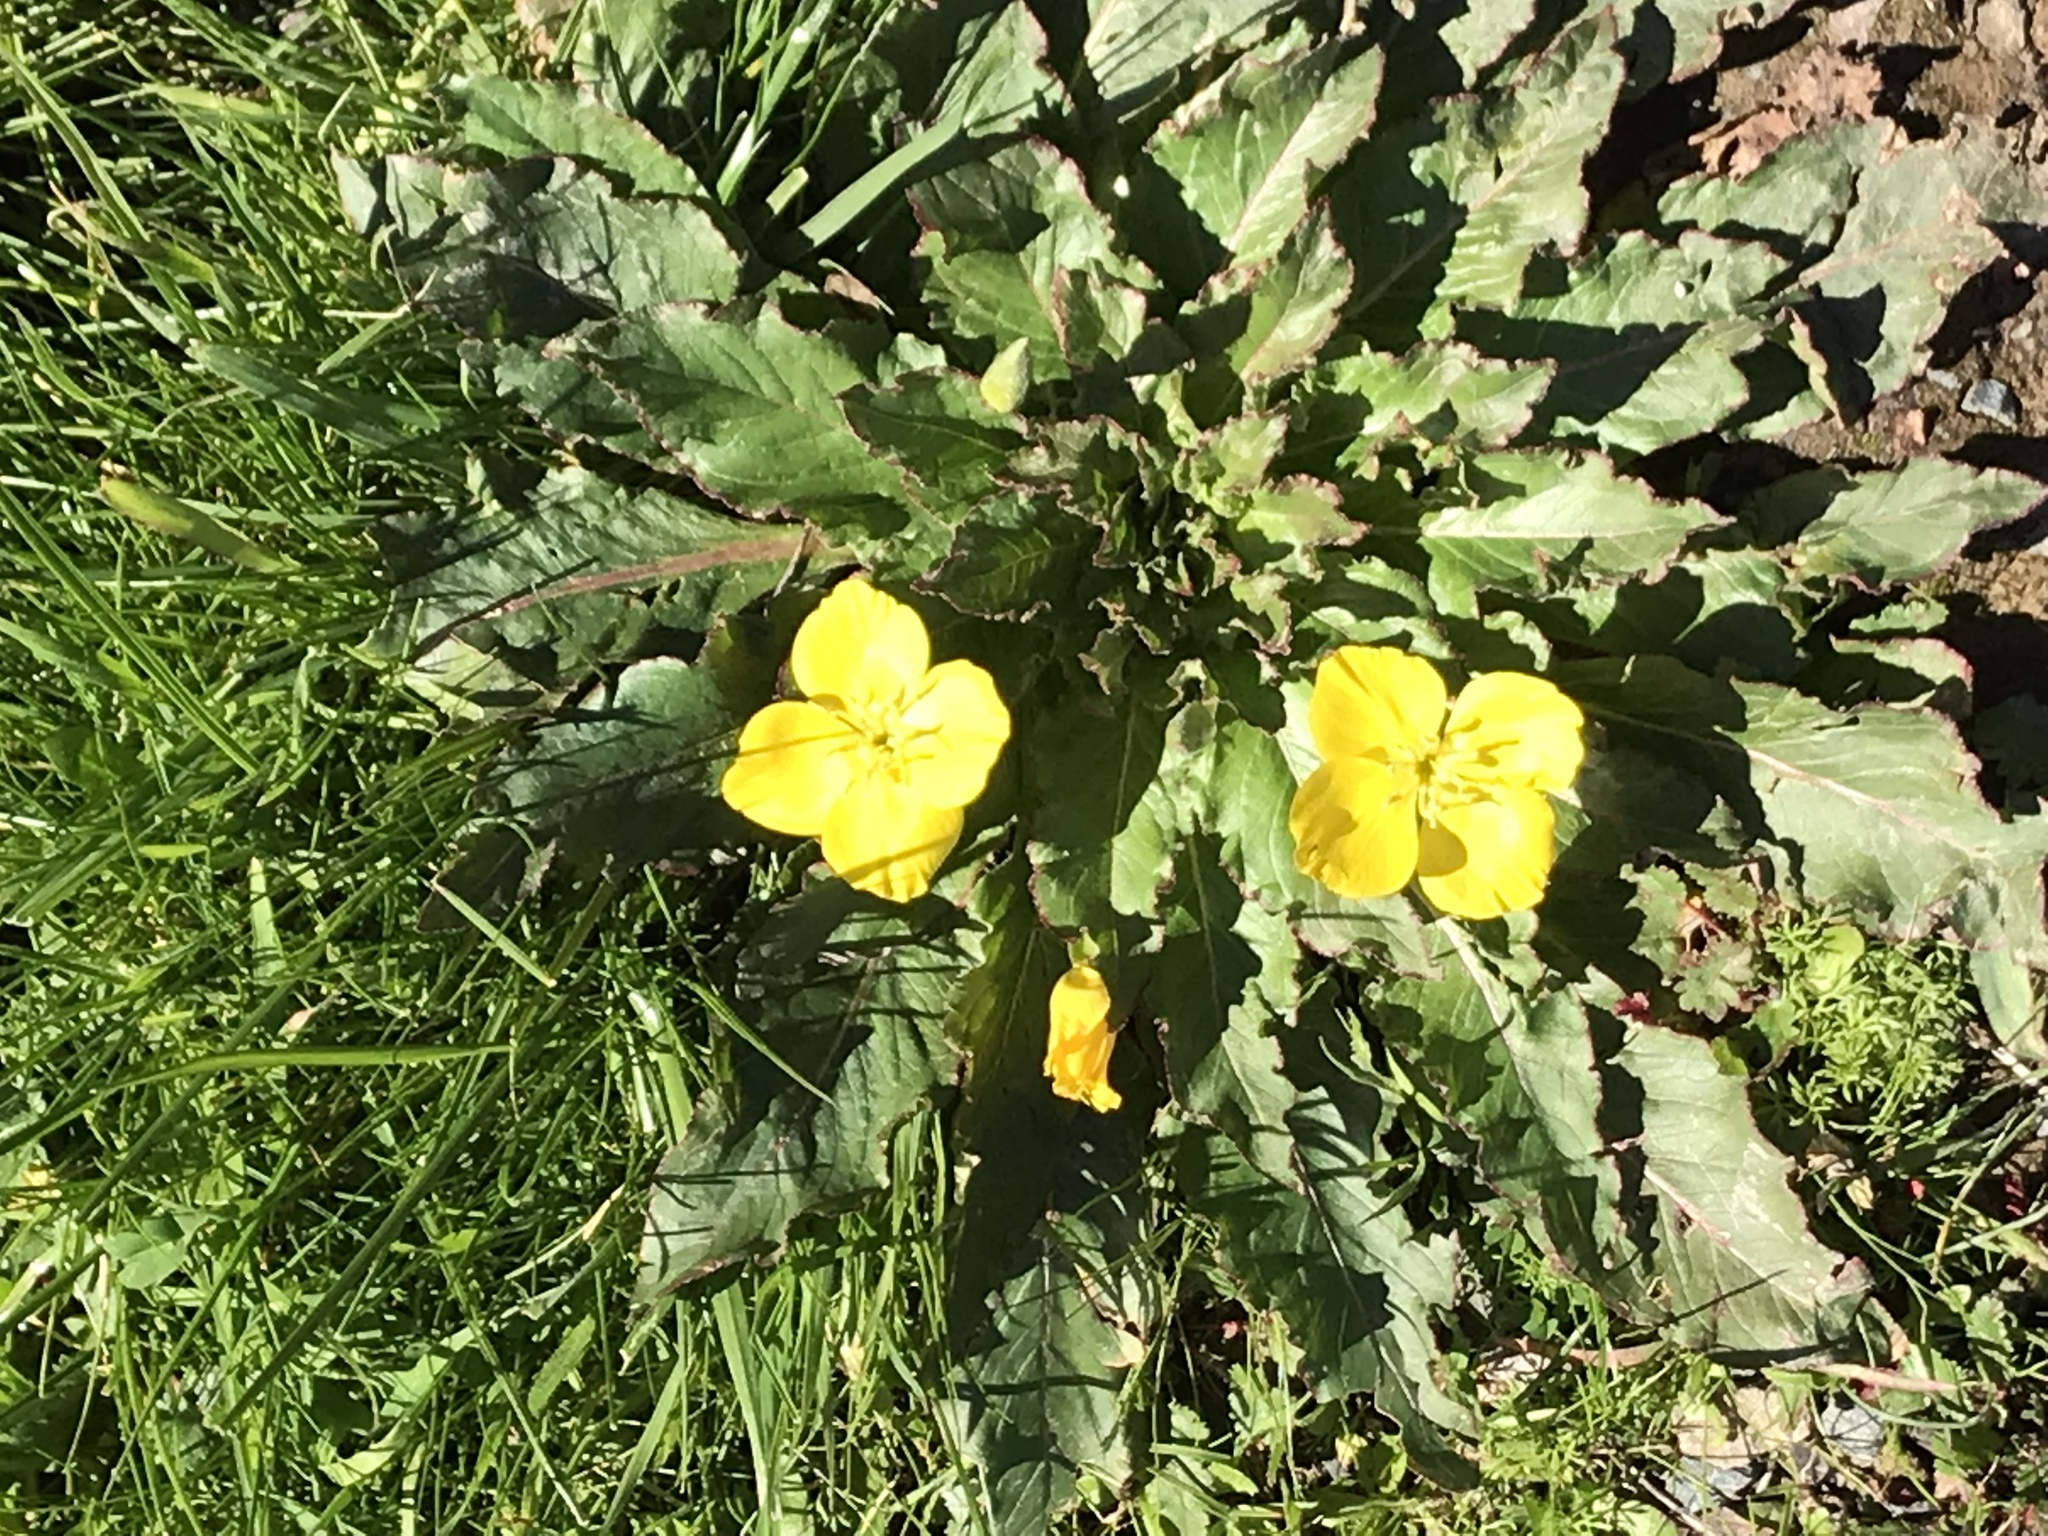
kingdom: Plantae
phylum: Tracheophyta
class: Magnoliopsida
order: Myrtales
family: Onagraceae
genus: Taraxia
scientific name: Taraxia ovata
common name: Goldeneggs
